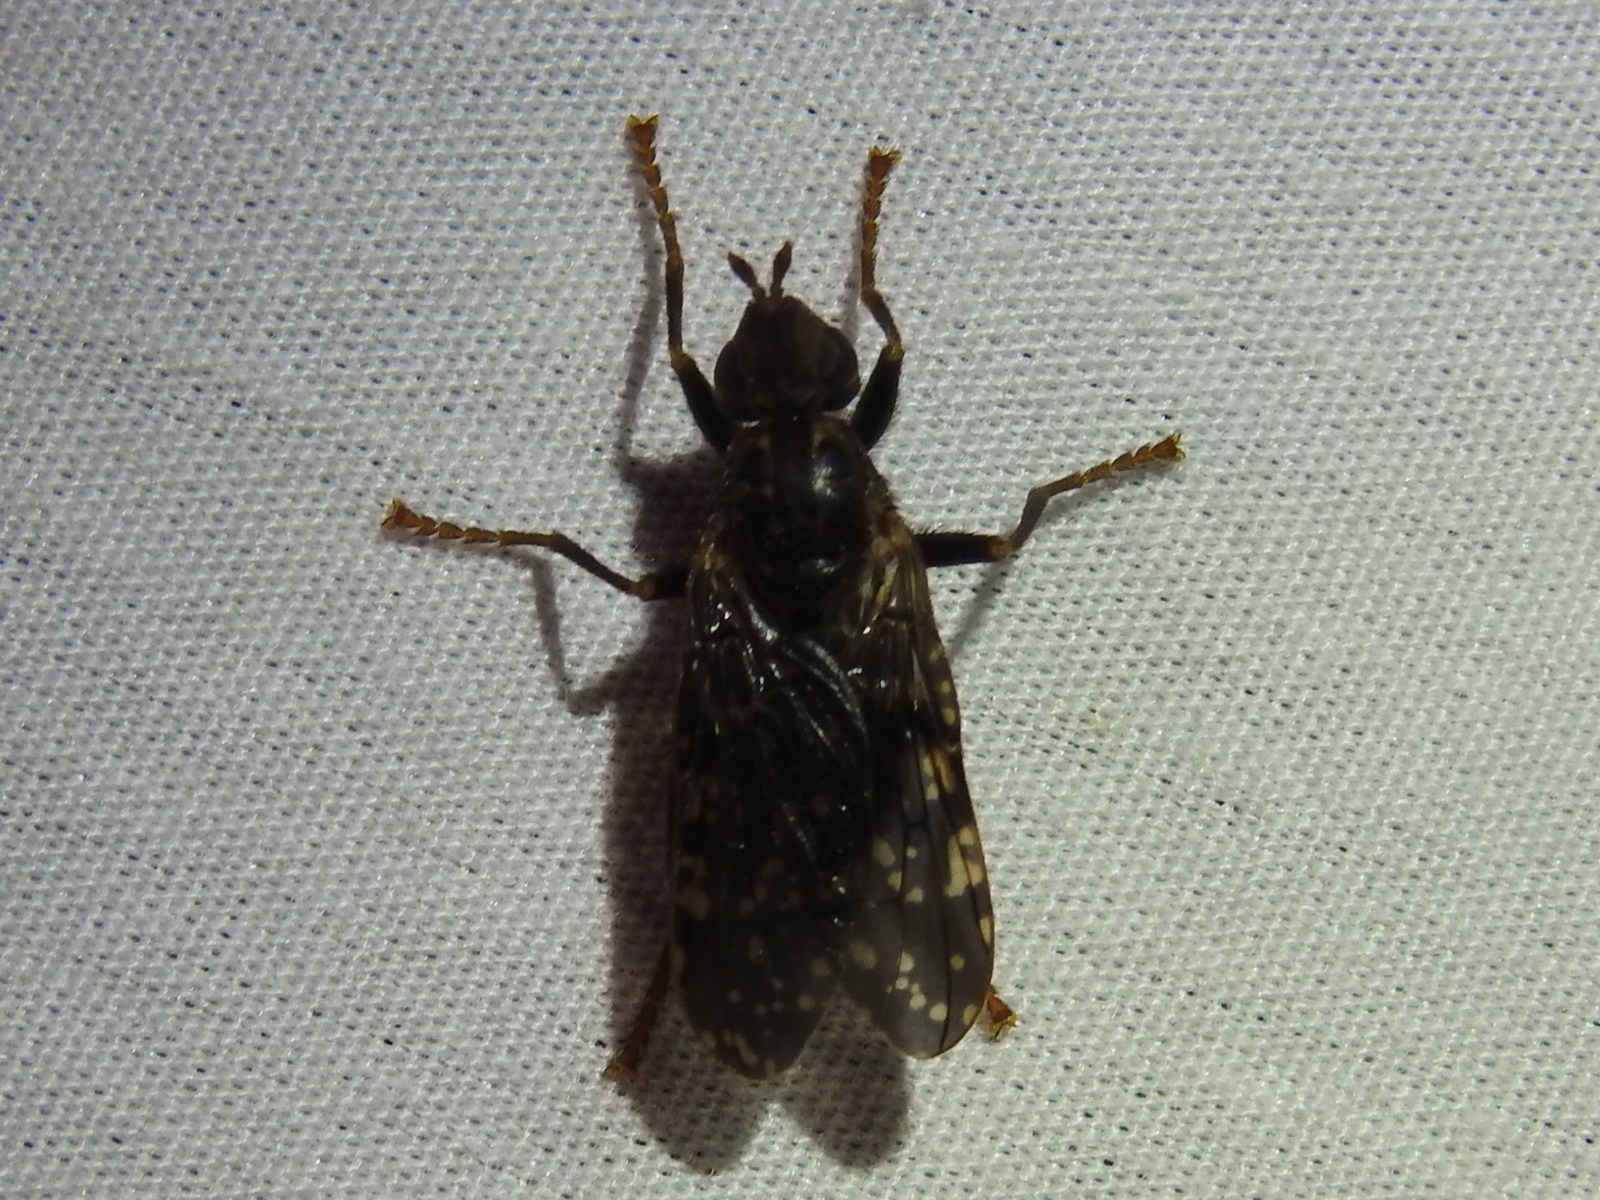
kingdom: Animalia
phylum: Arthropoda
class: Insecta
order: Diptera
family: Pyrgotidae
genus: Pyrgota
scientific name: Pyrgota valida
